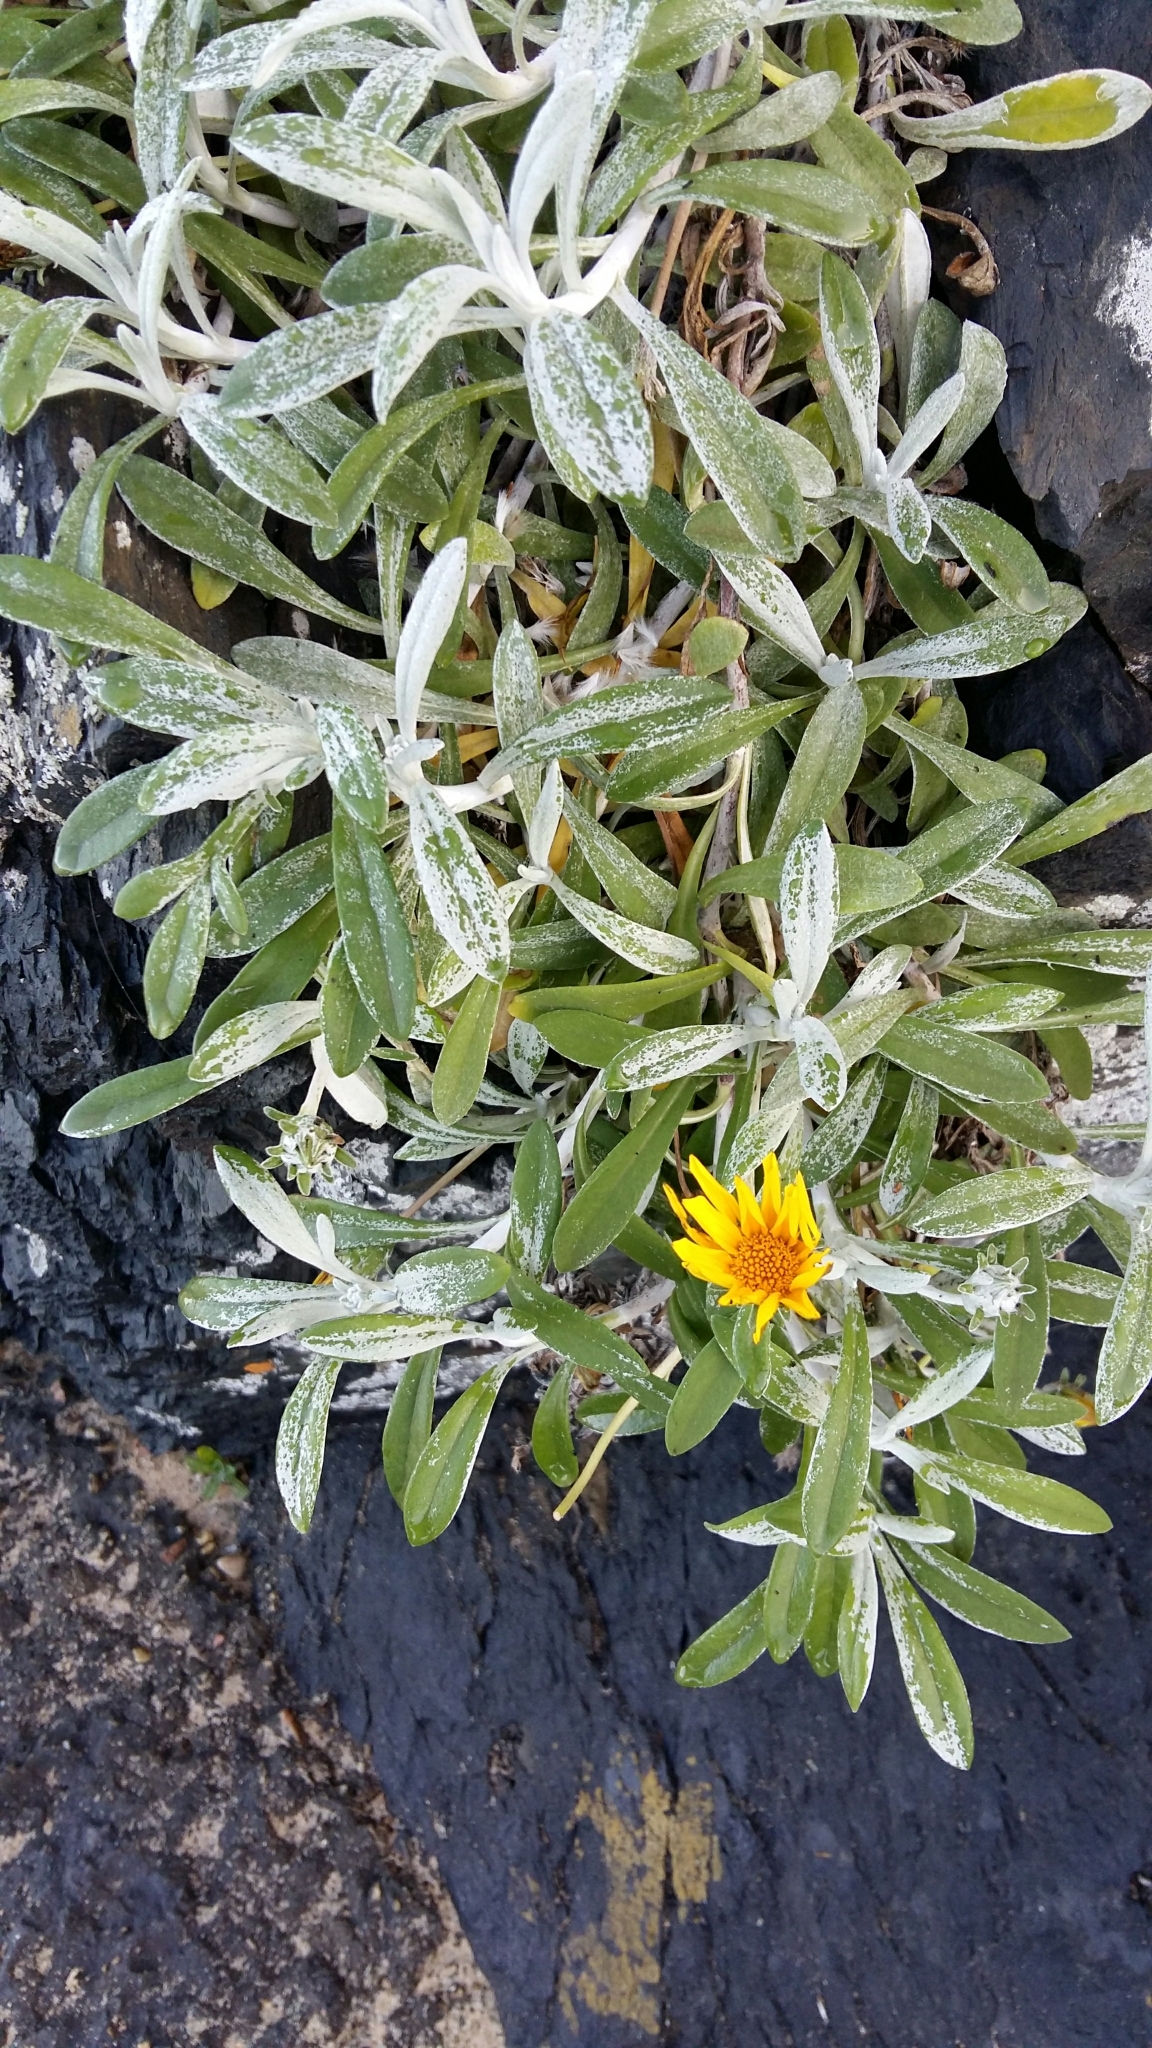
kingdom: Plantae
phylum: Tracheophyta
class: Magnoliopsida
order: Asterales
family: Asteraceae
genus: Gazania
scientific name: Gazania rigens
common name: Treasureflower
